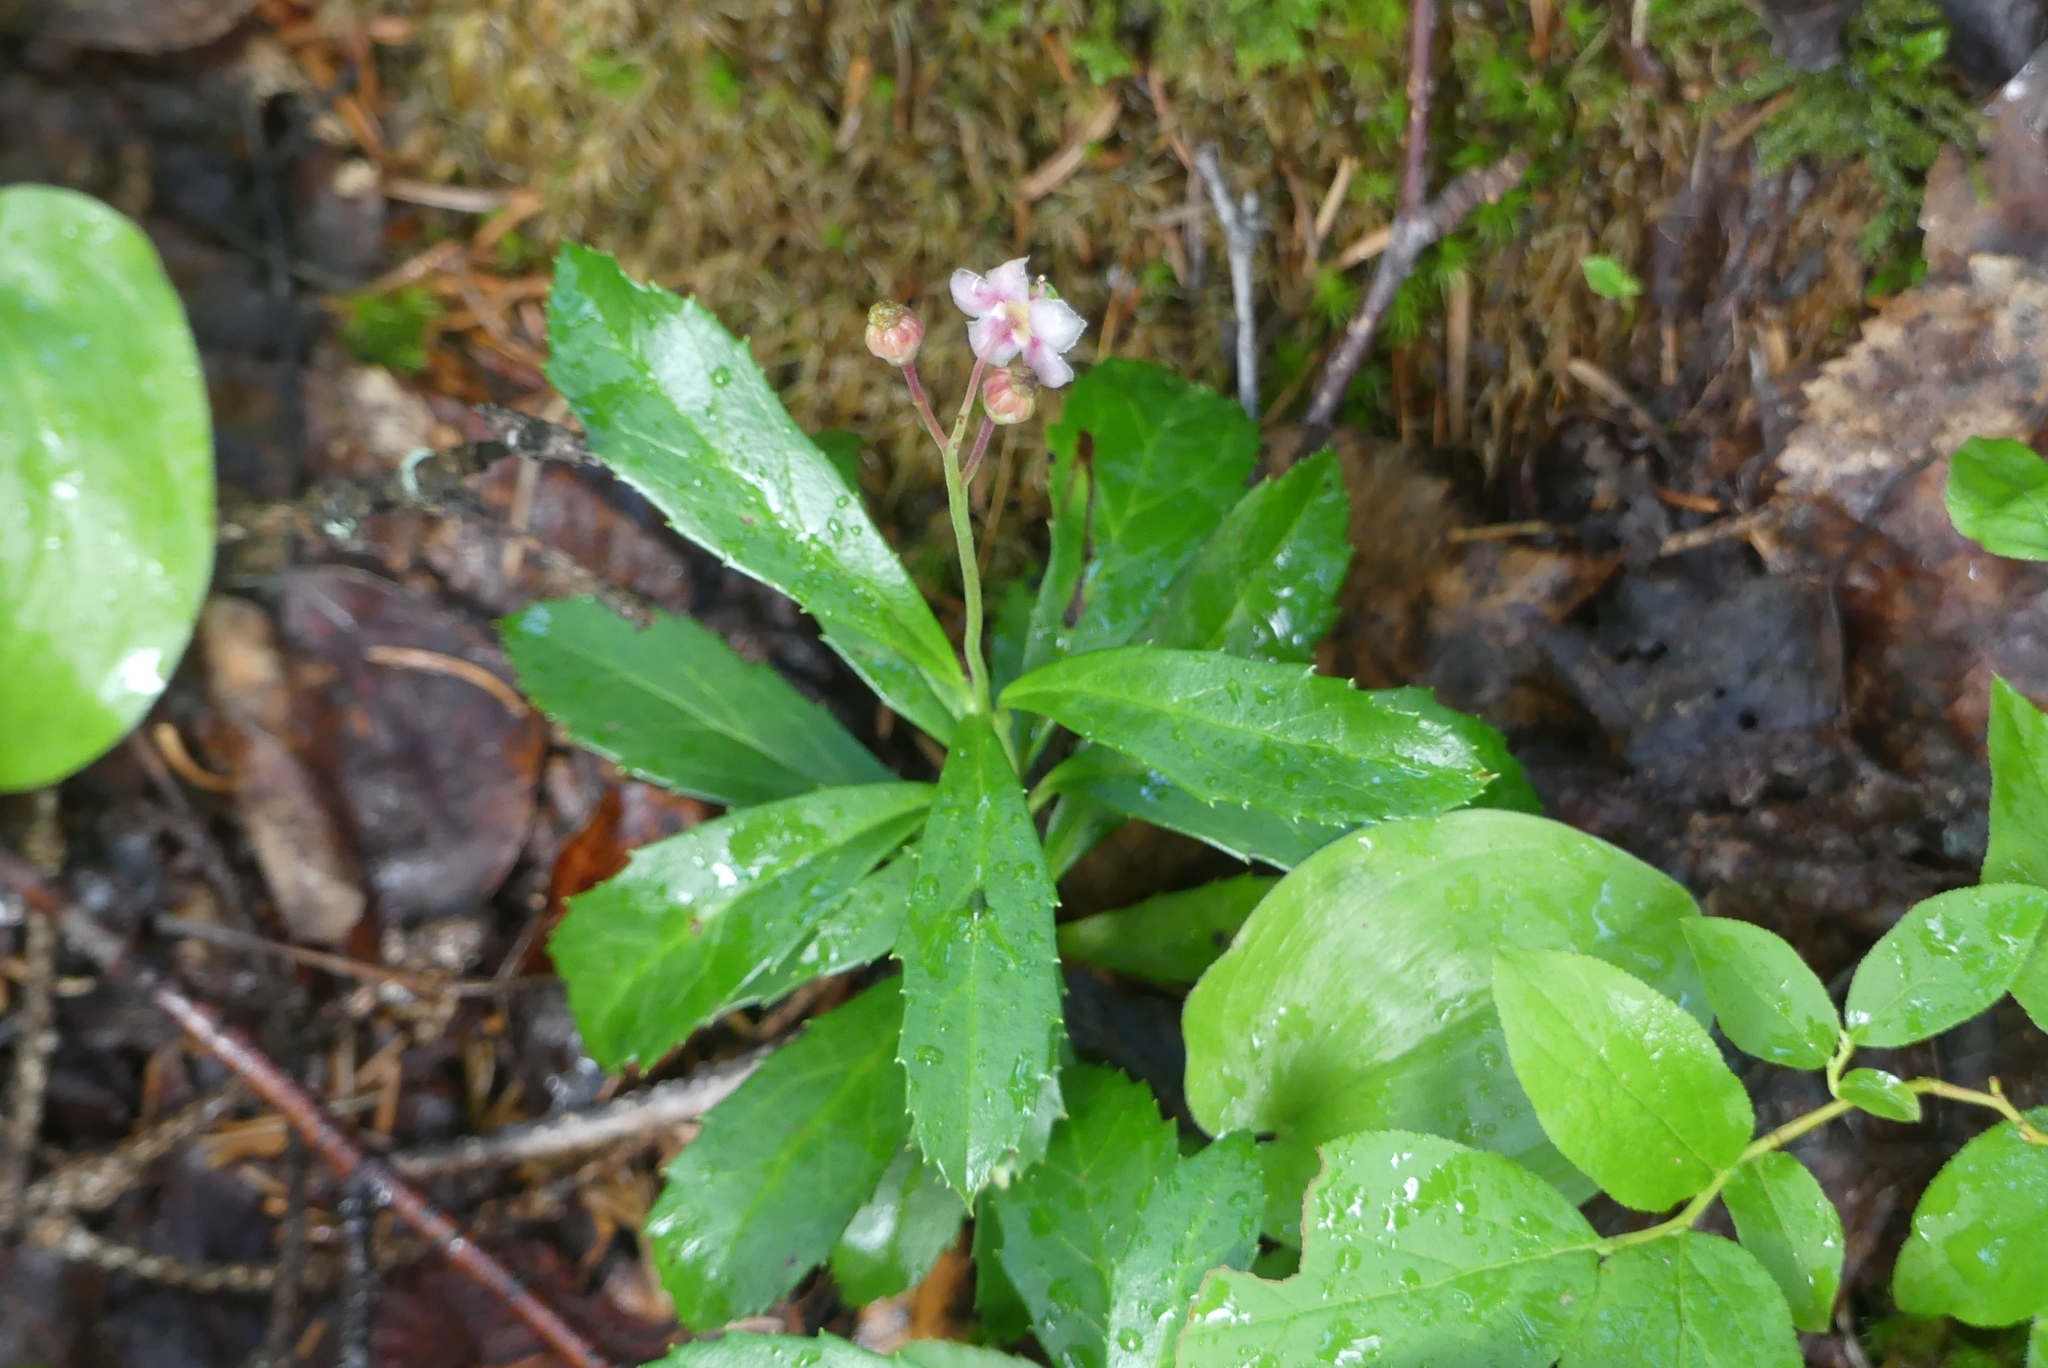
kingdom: Plantae
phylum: Tracheophyta
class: Magnoliopsida
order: Ericales
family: Ericaceae
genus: Chimaphila
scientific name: Chimaphila umbellata
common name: Pipsissewa
